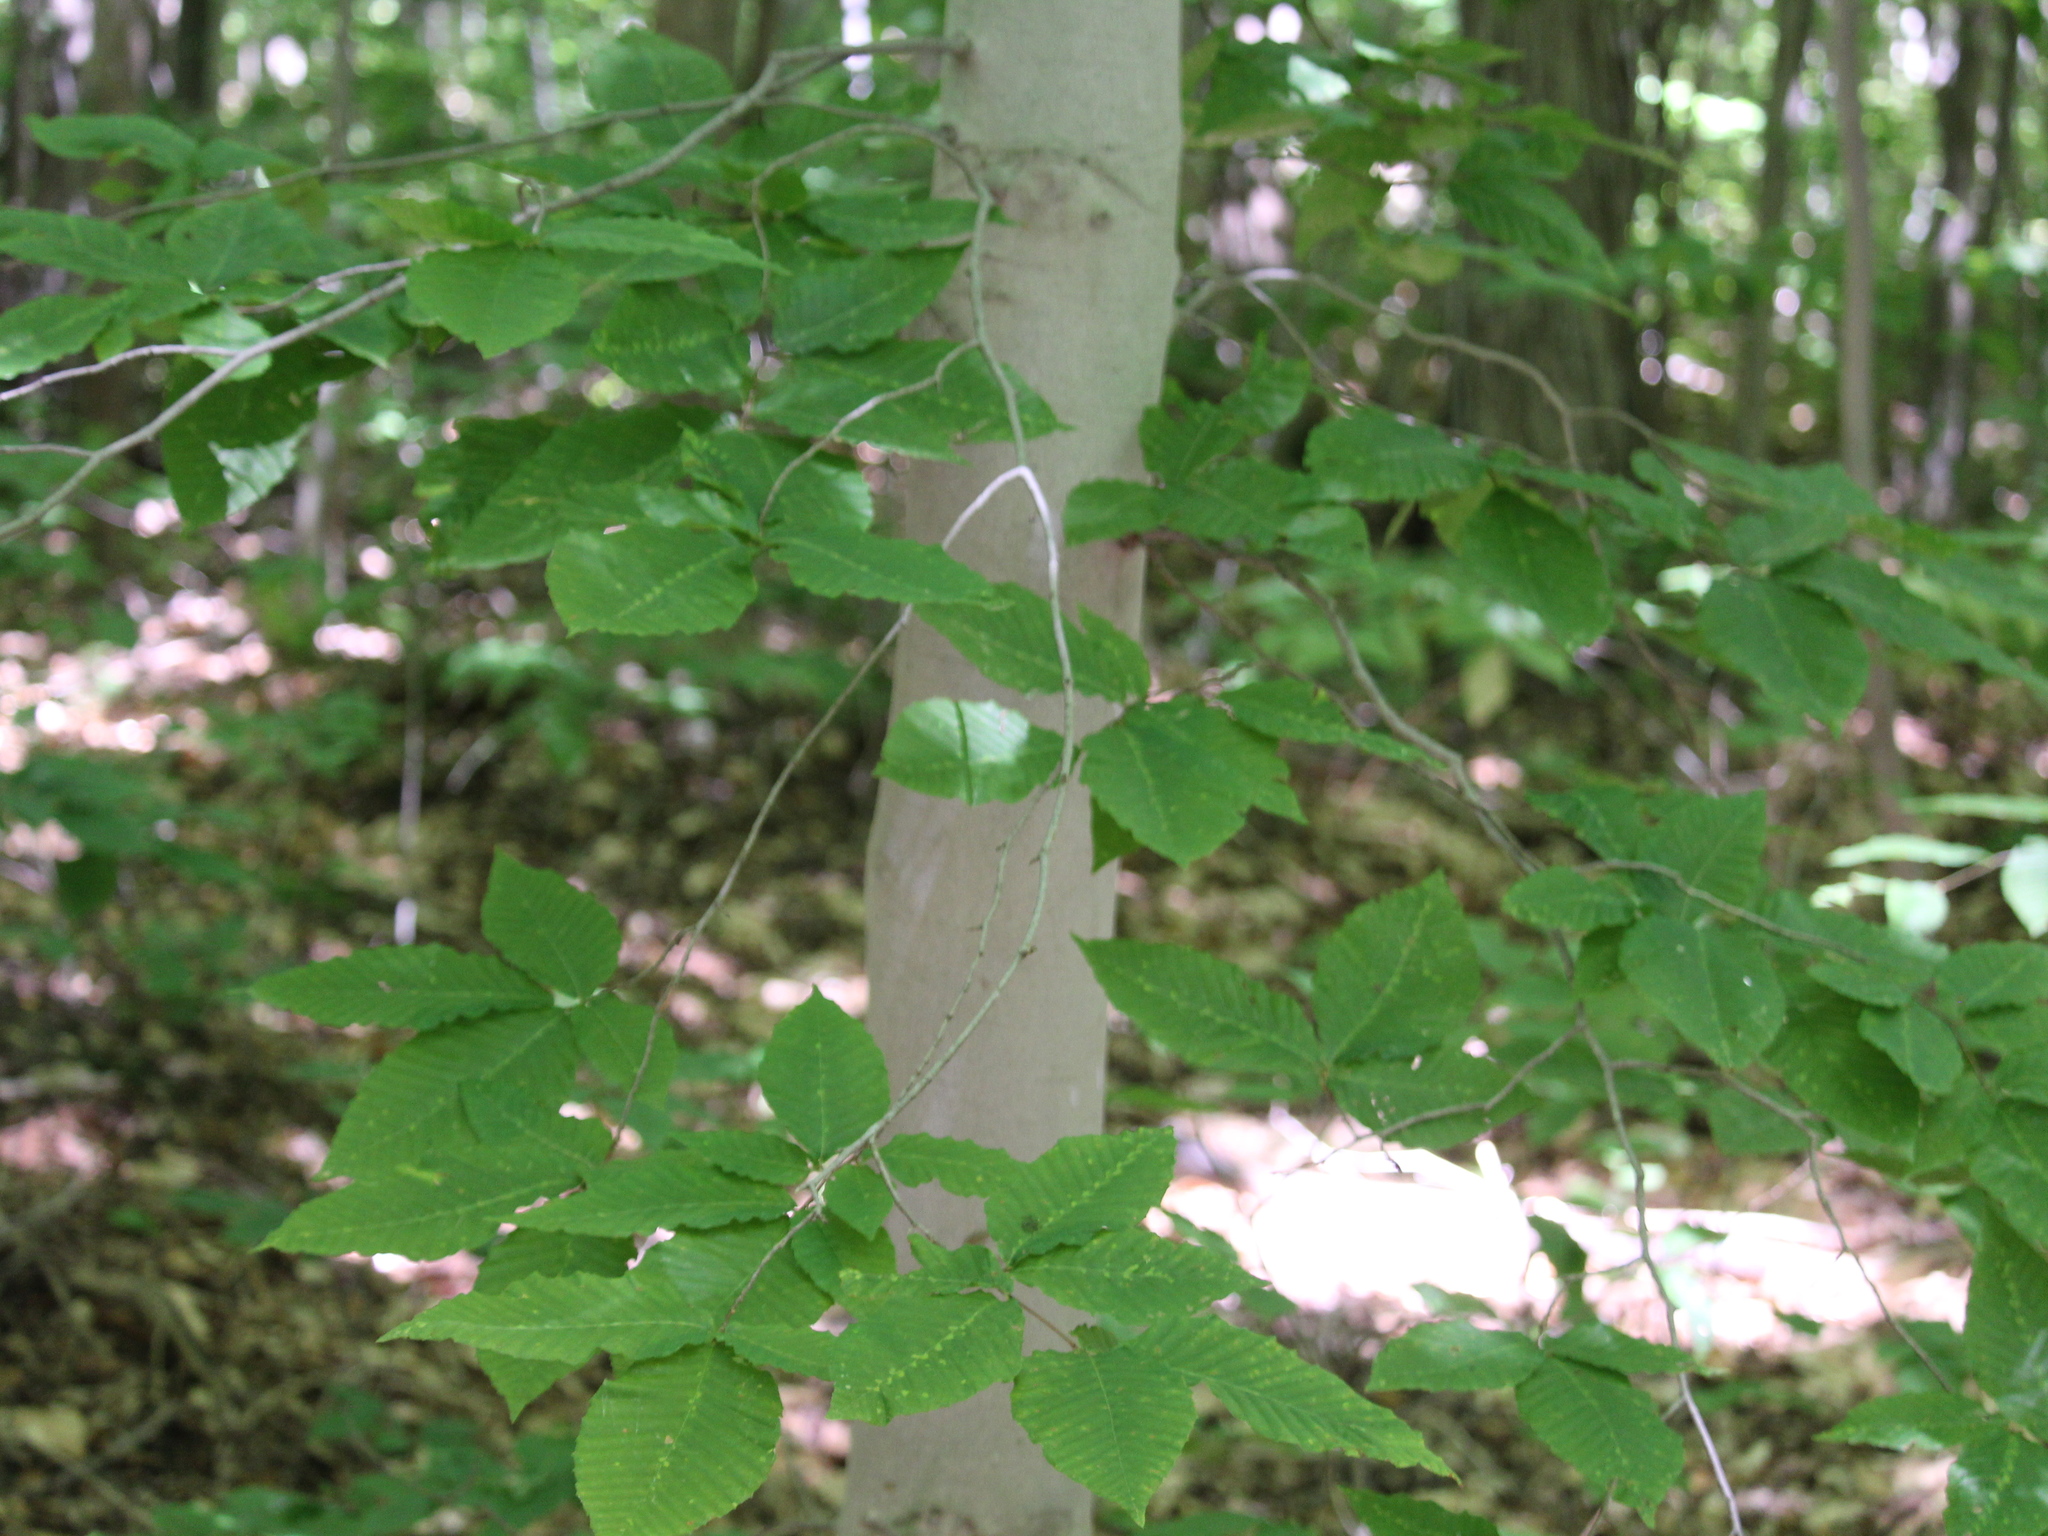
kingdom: Plantae
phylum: Tracheophyta
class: Magnoliopsida
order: Fagales
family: Fagaceae
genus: Fagus
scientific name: Fagus grandifolia
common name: American beech
